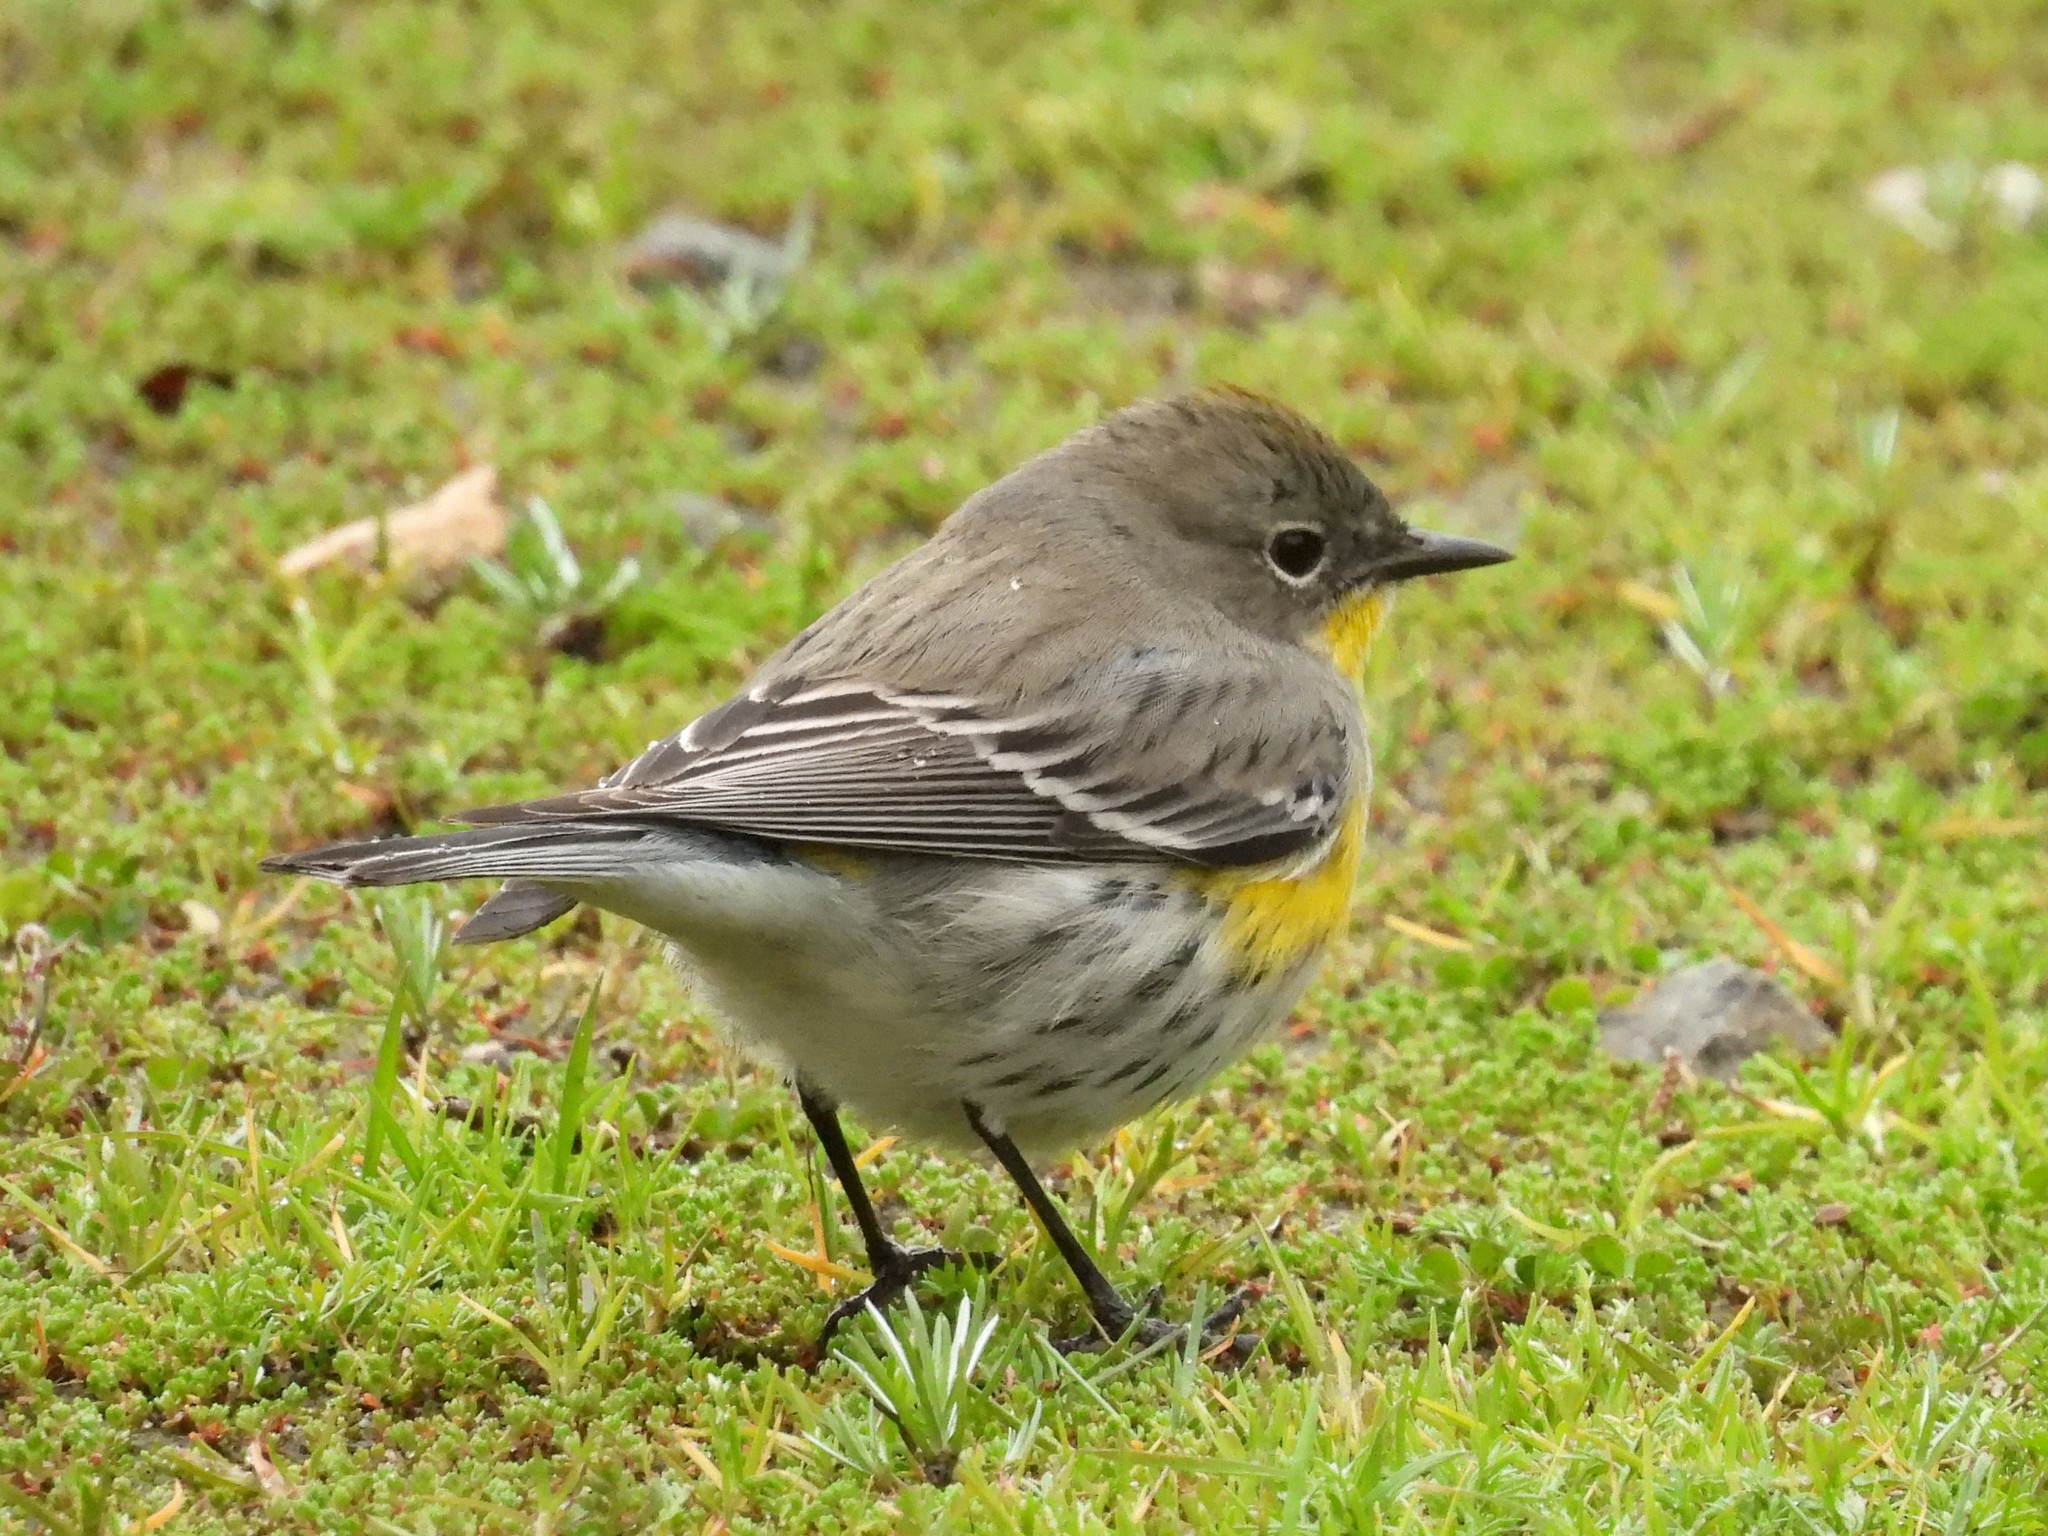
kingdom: Animalia
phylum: Chordata
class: Aves
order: Passeriformes
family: Parulidae
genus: Setophaga
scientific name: Setophaga coronata
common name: Myrtle warbler
